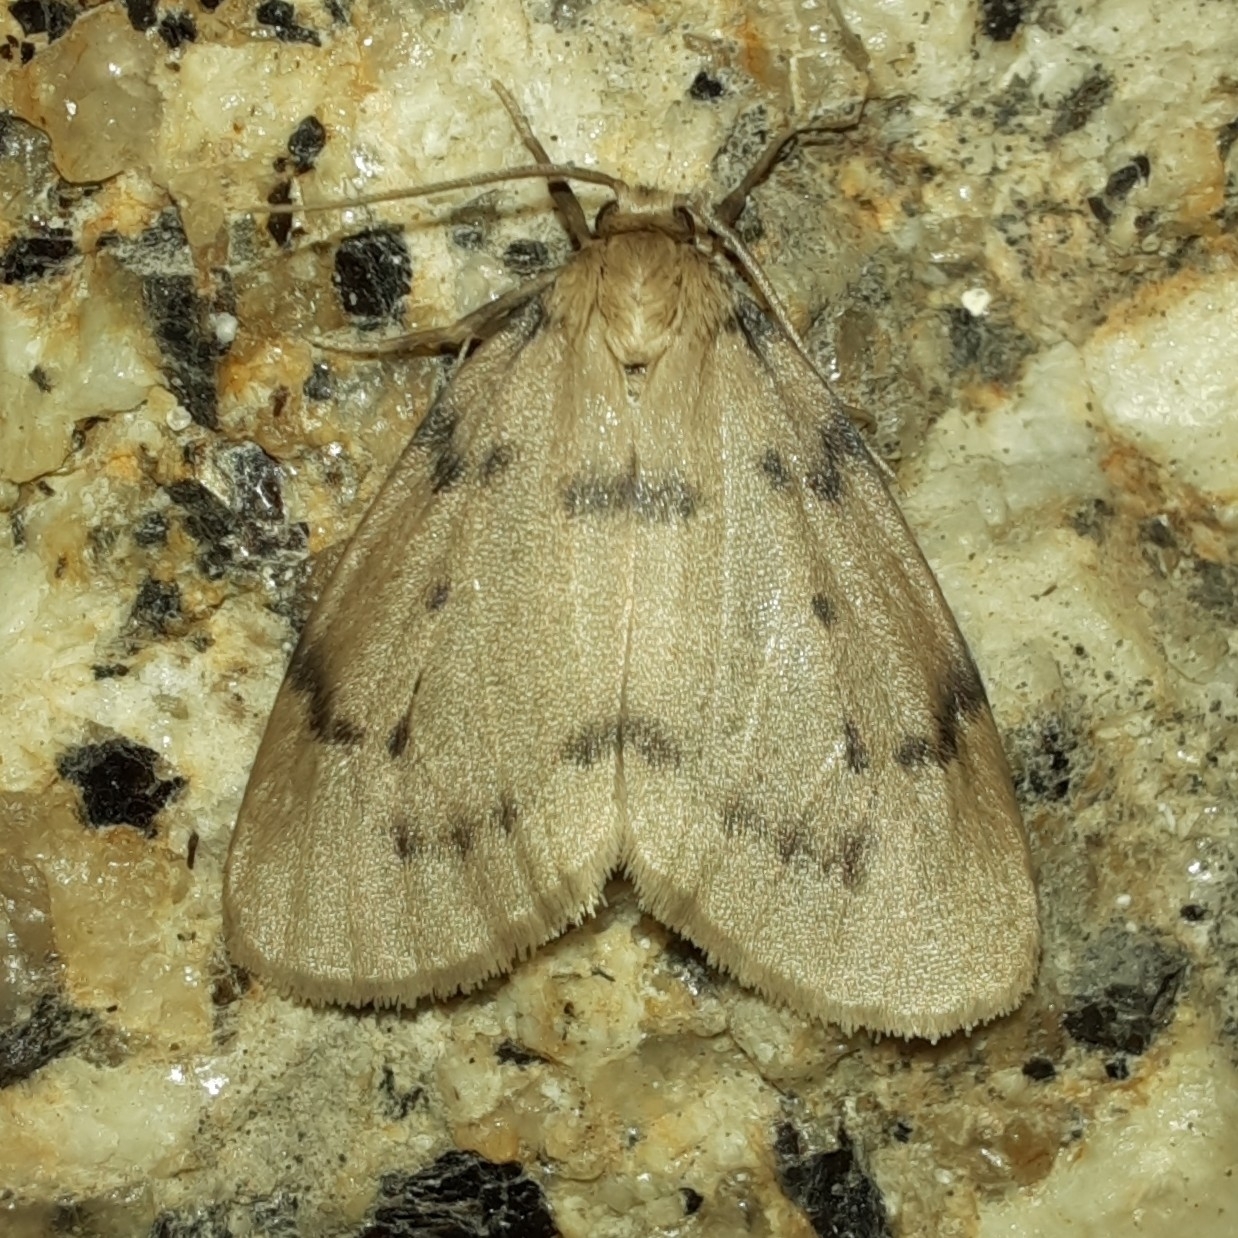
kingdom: Animalia
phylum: Arthropoda
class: Insecta
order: Lepidoptera
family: Erebidae
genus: Paidia
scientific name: Paidia rica
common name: Glaucous muslin
